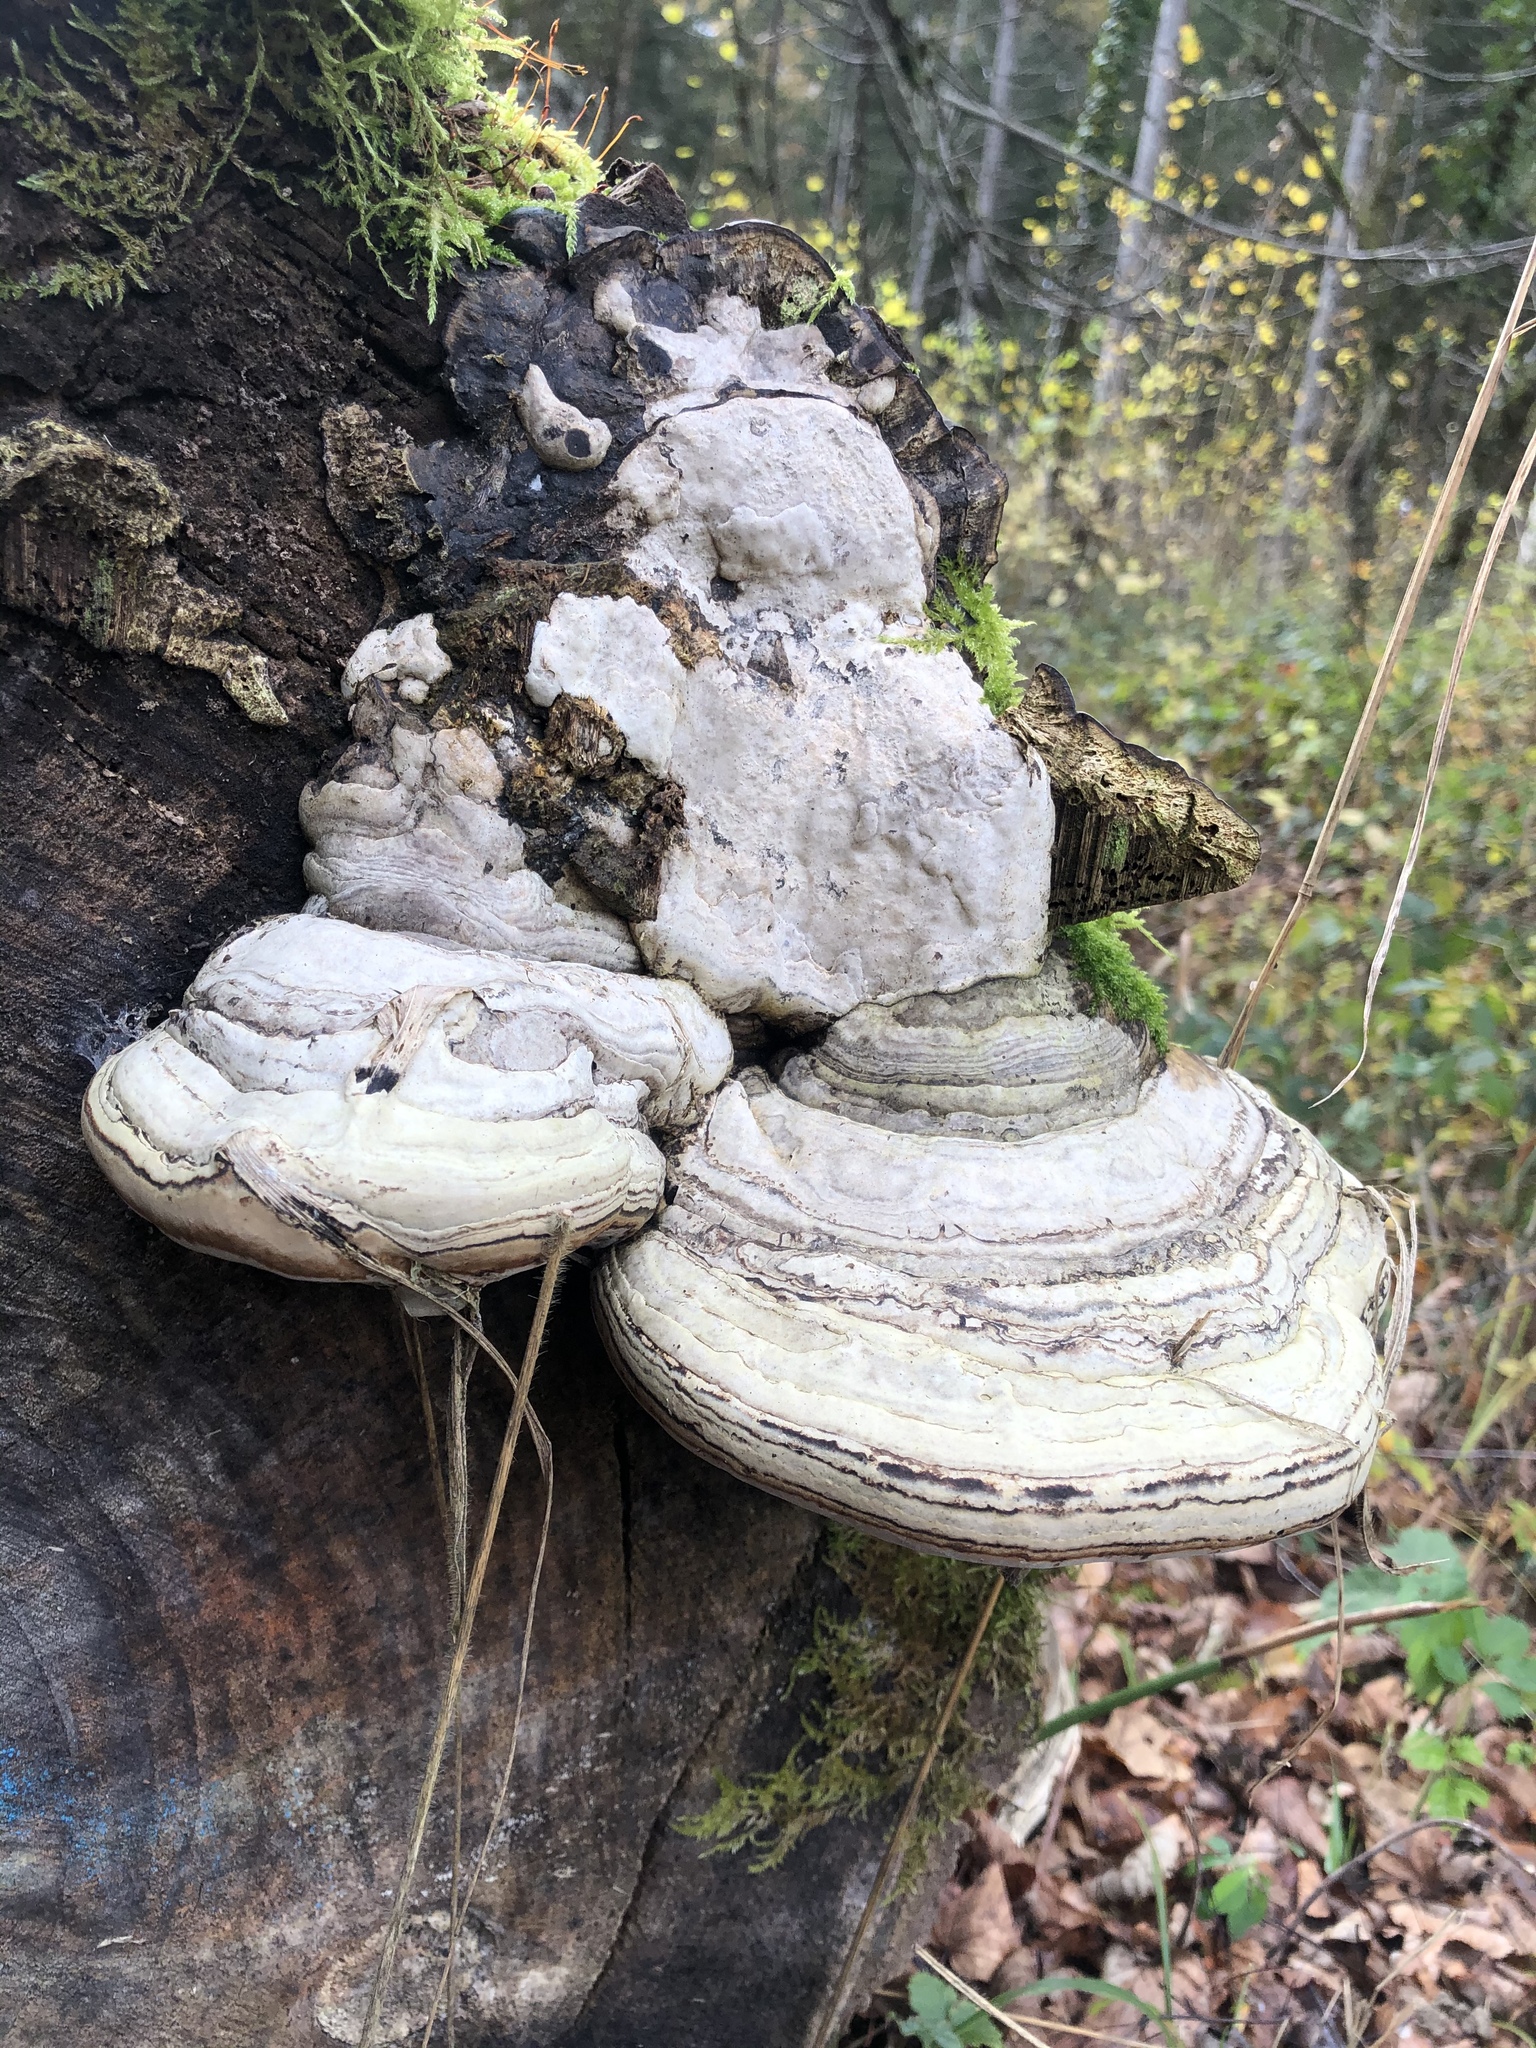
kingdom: Fungi
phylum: Basidiomycota
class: Agaricomycetes
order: Polyporales
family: Polyporaceae
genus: Fomes
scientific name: Fomes fomentarius
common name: Hoof fungus
